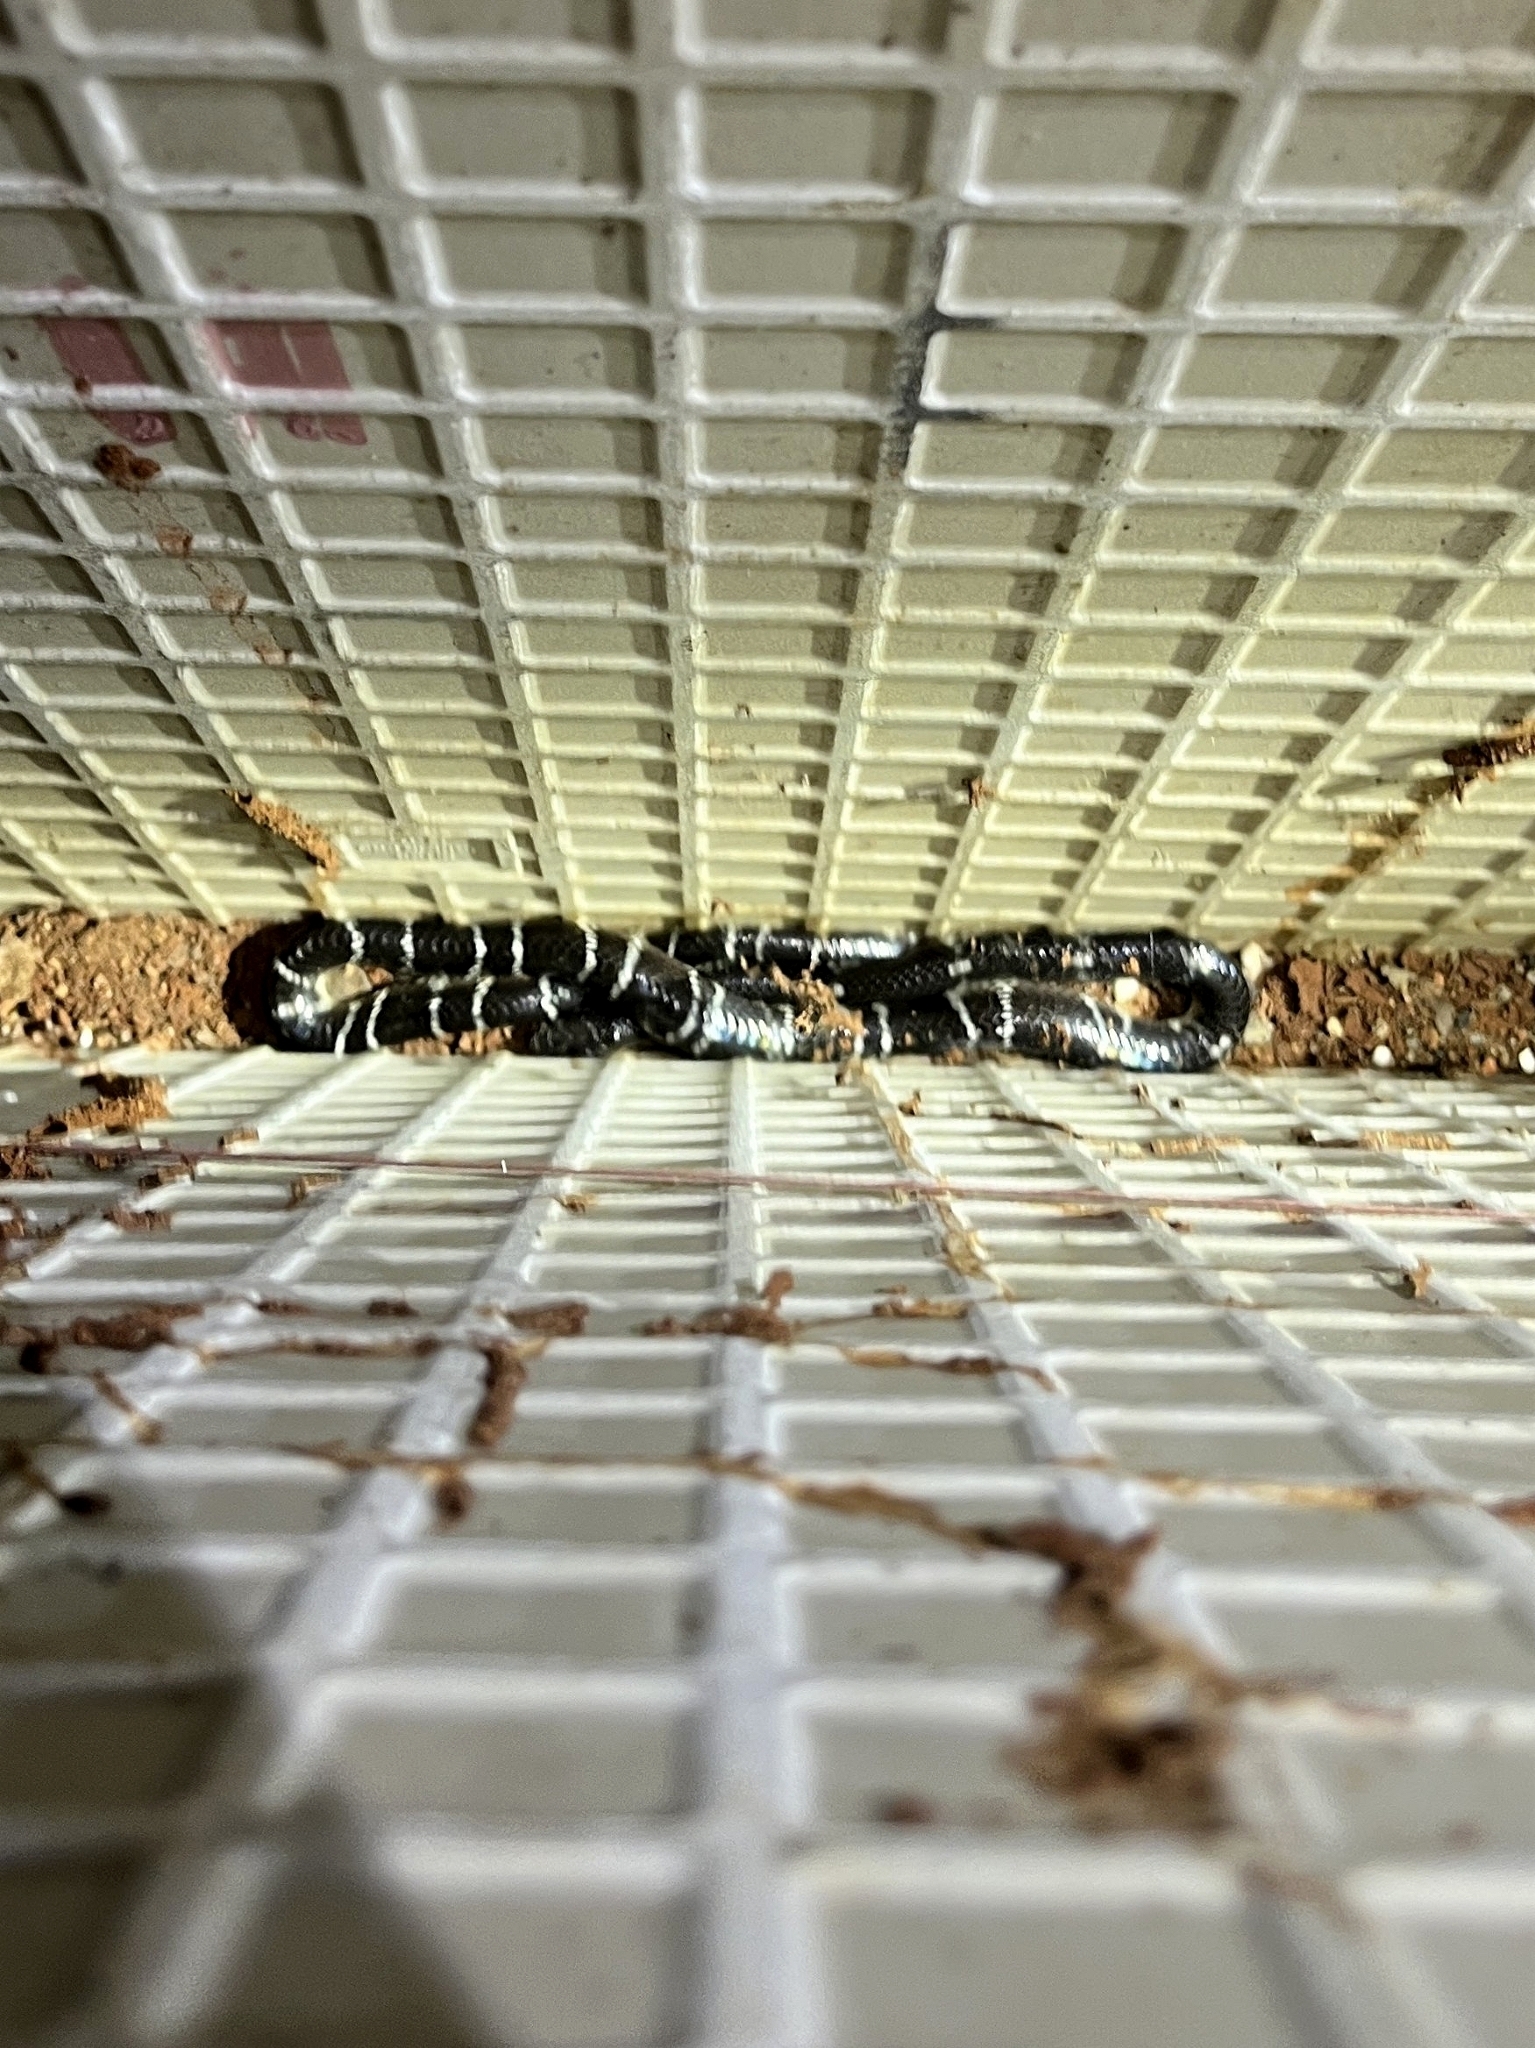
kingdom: Animalia
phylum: Chordata
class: Squamata
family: Elapidae
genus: Bungarus
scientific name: Bungarus caeruleus
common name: Common krait
